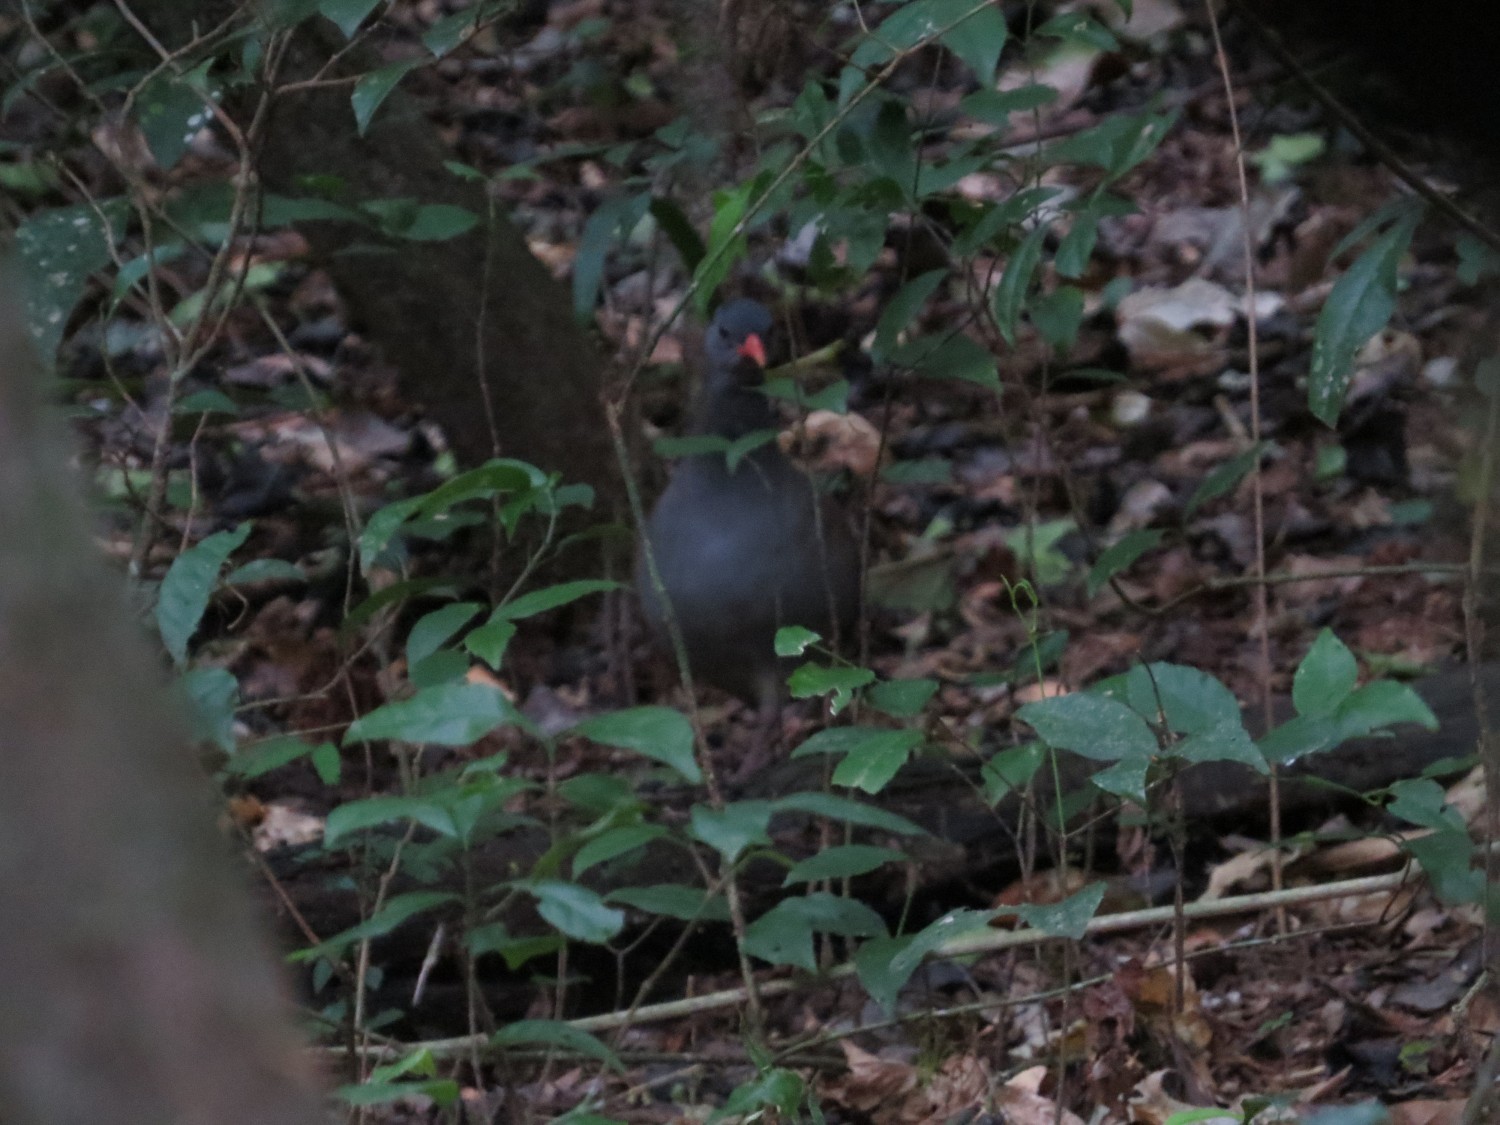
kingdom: Animalia
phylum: Chordata
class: Aves
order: Tinamiformes
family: Tinamidae
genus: Crypturellus
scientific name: Crypturellus tataupa
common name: Tataupa tinamou
